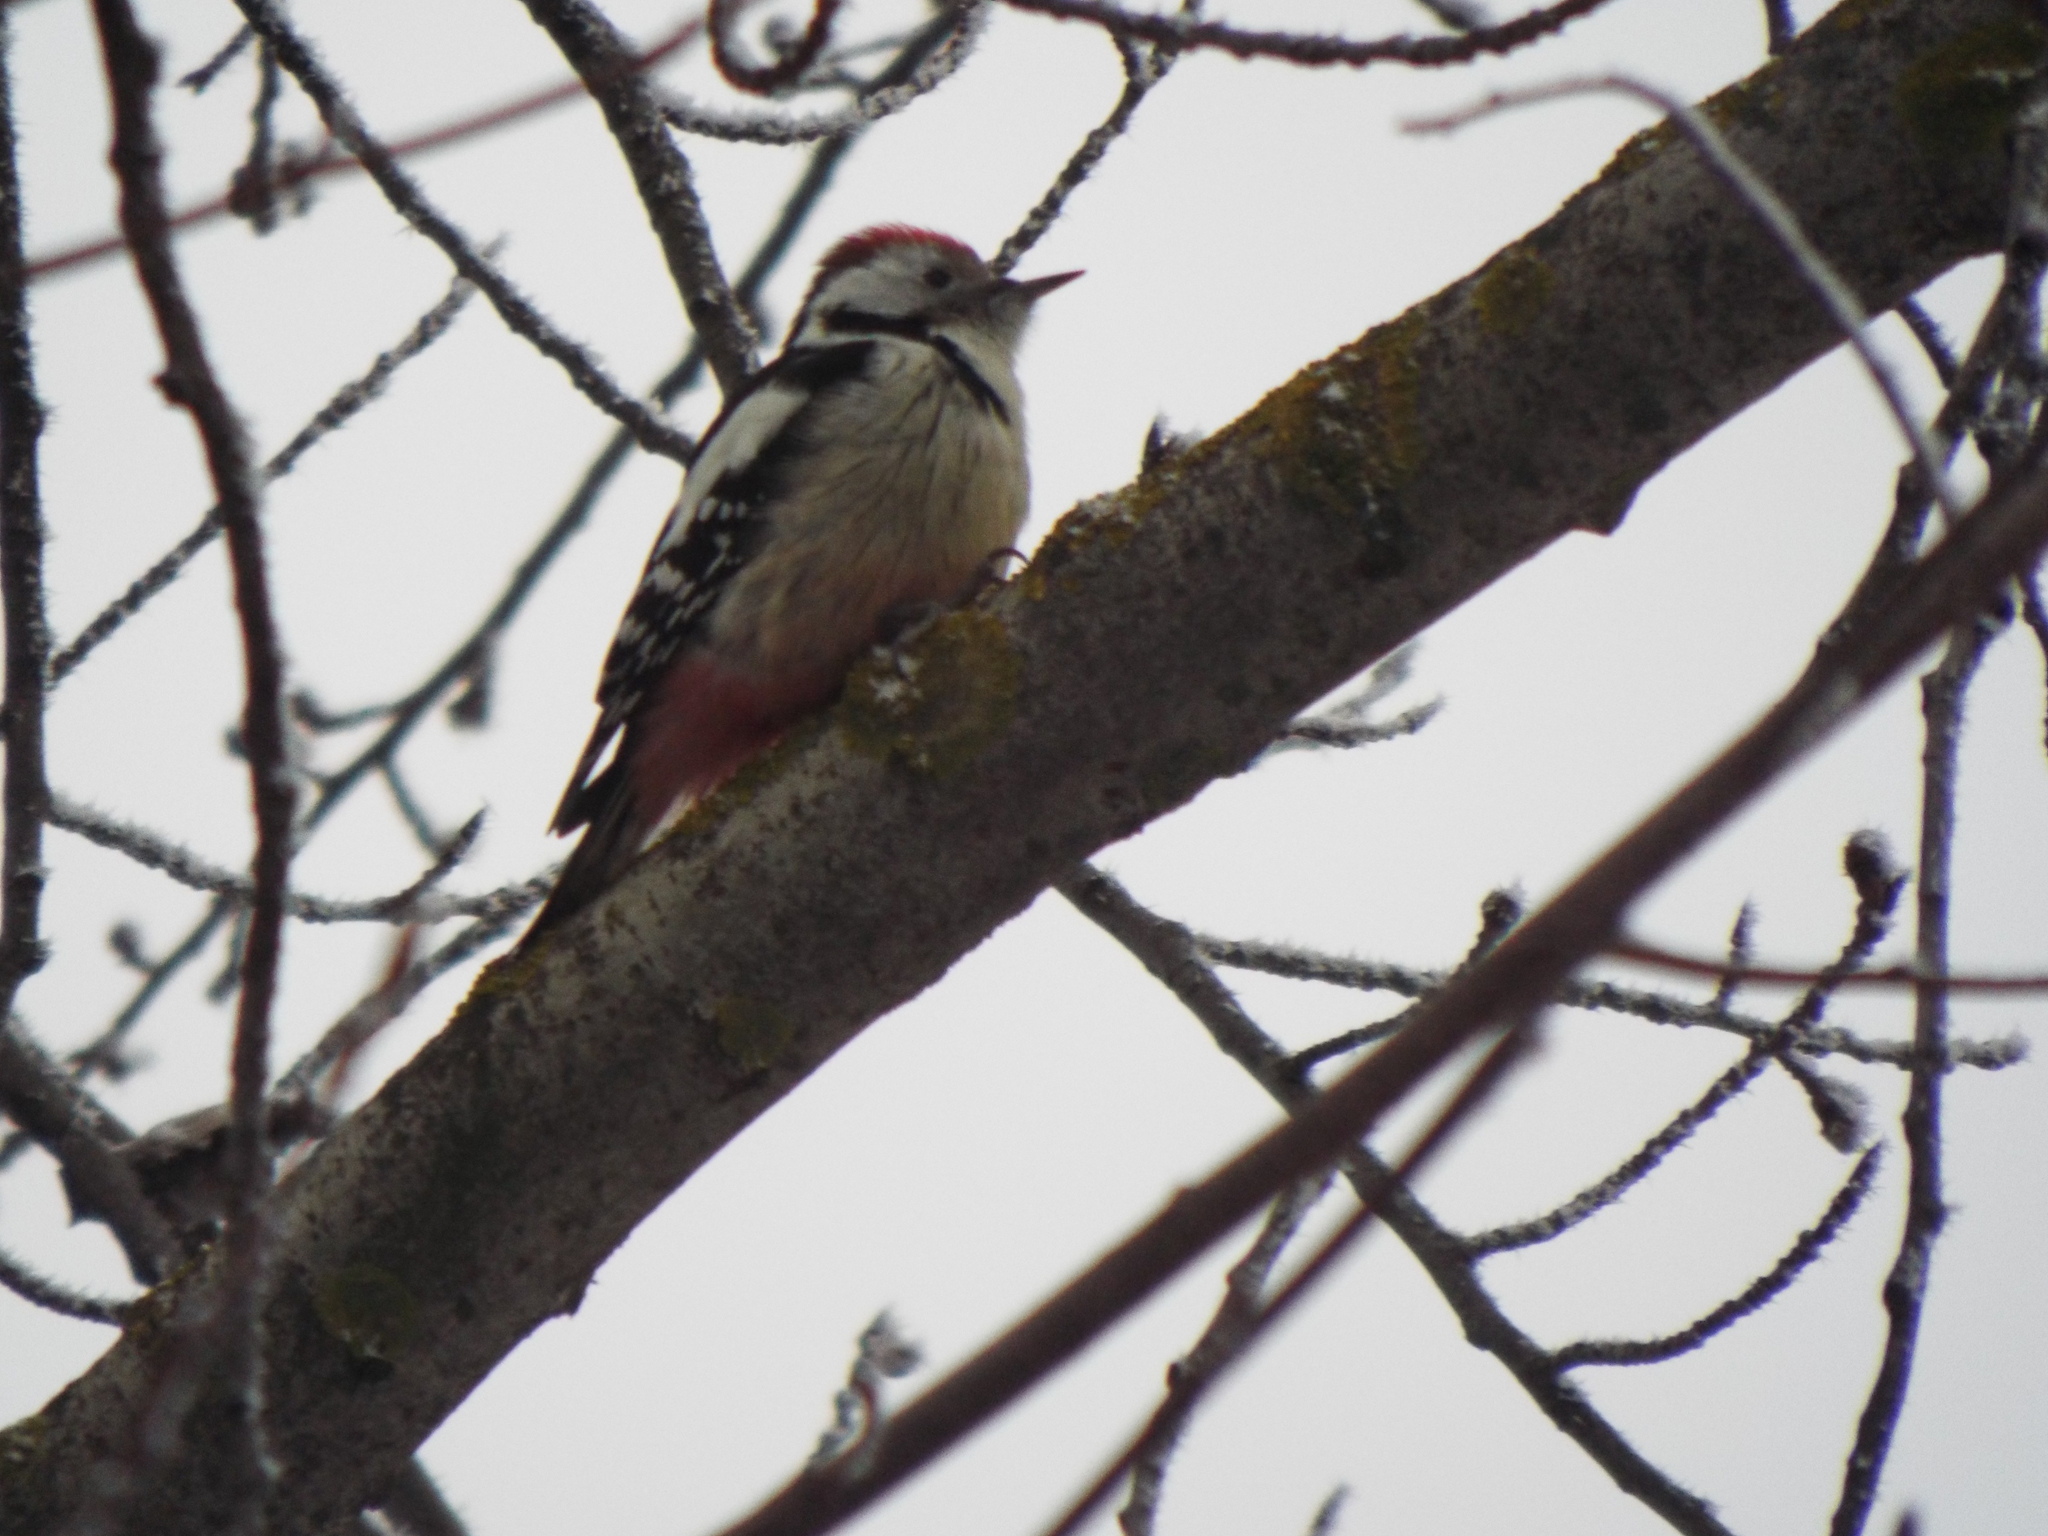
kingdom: Animalia
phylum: Chordata
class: Aves
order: Piciformes
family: Picidae
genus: Dendrocoptes
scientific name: Dendrocoptes medius
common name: Middle spotted woodpecker
